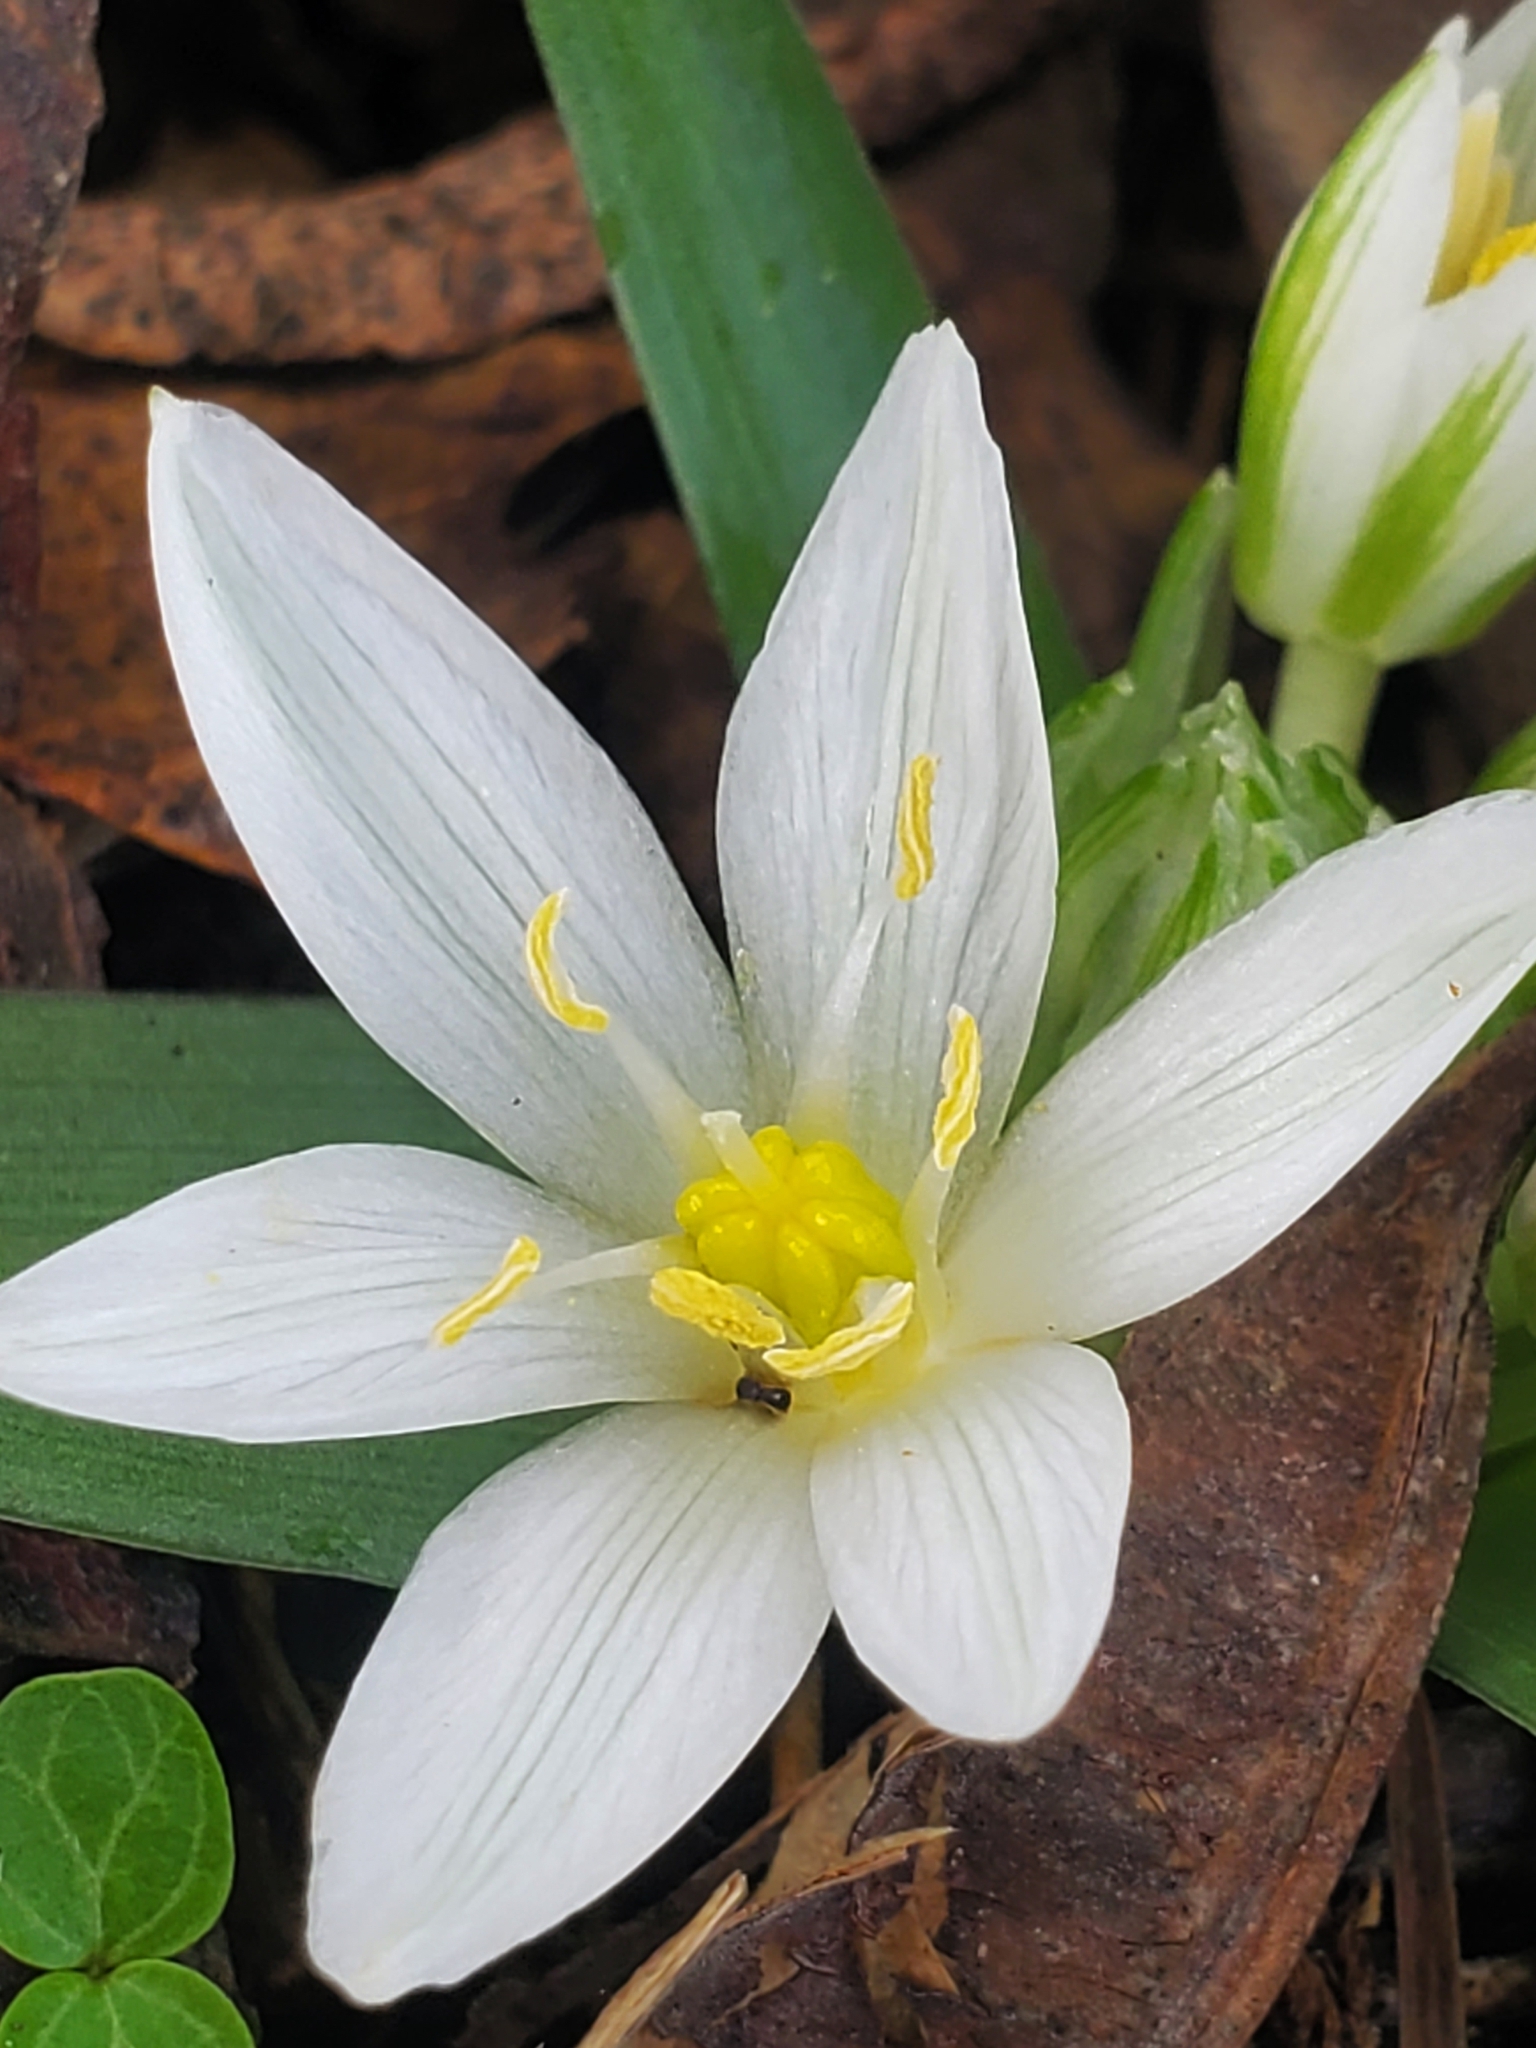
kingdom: Plantae
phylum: Tracheophyta
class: Liliopsida
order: Asparagales
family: Asparagaceae
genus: Ornithogalum
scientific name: Ornithogalum lanceolatum
